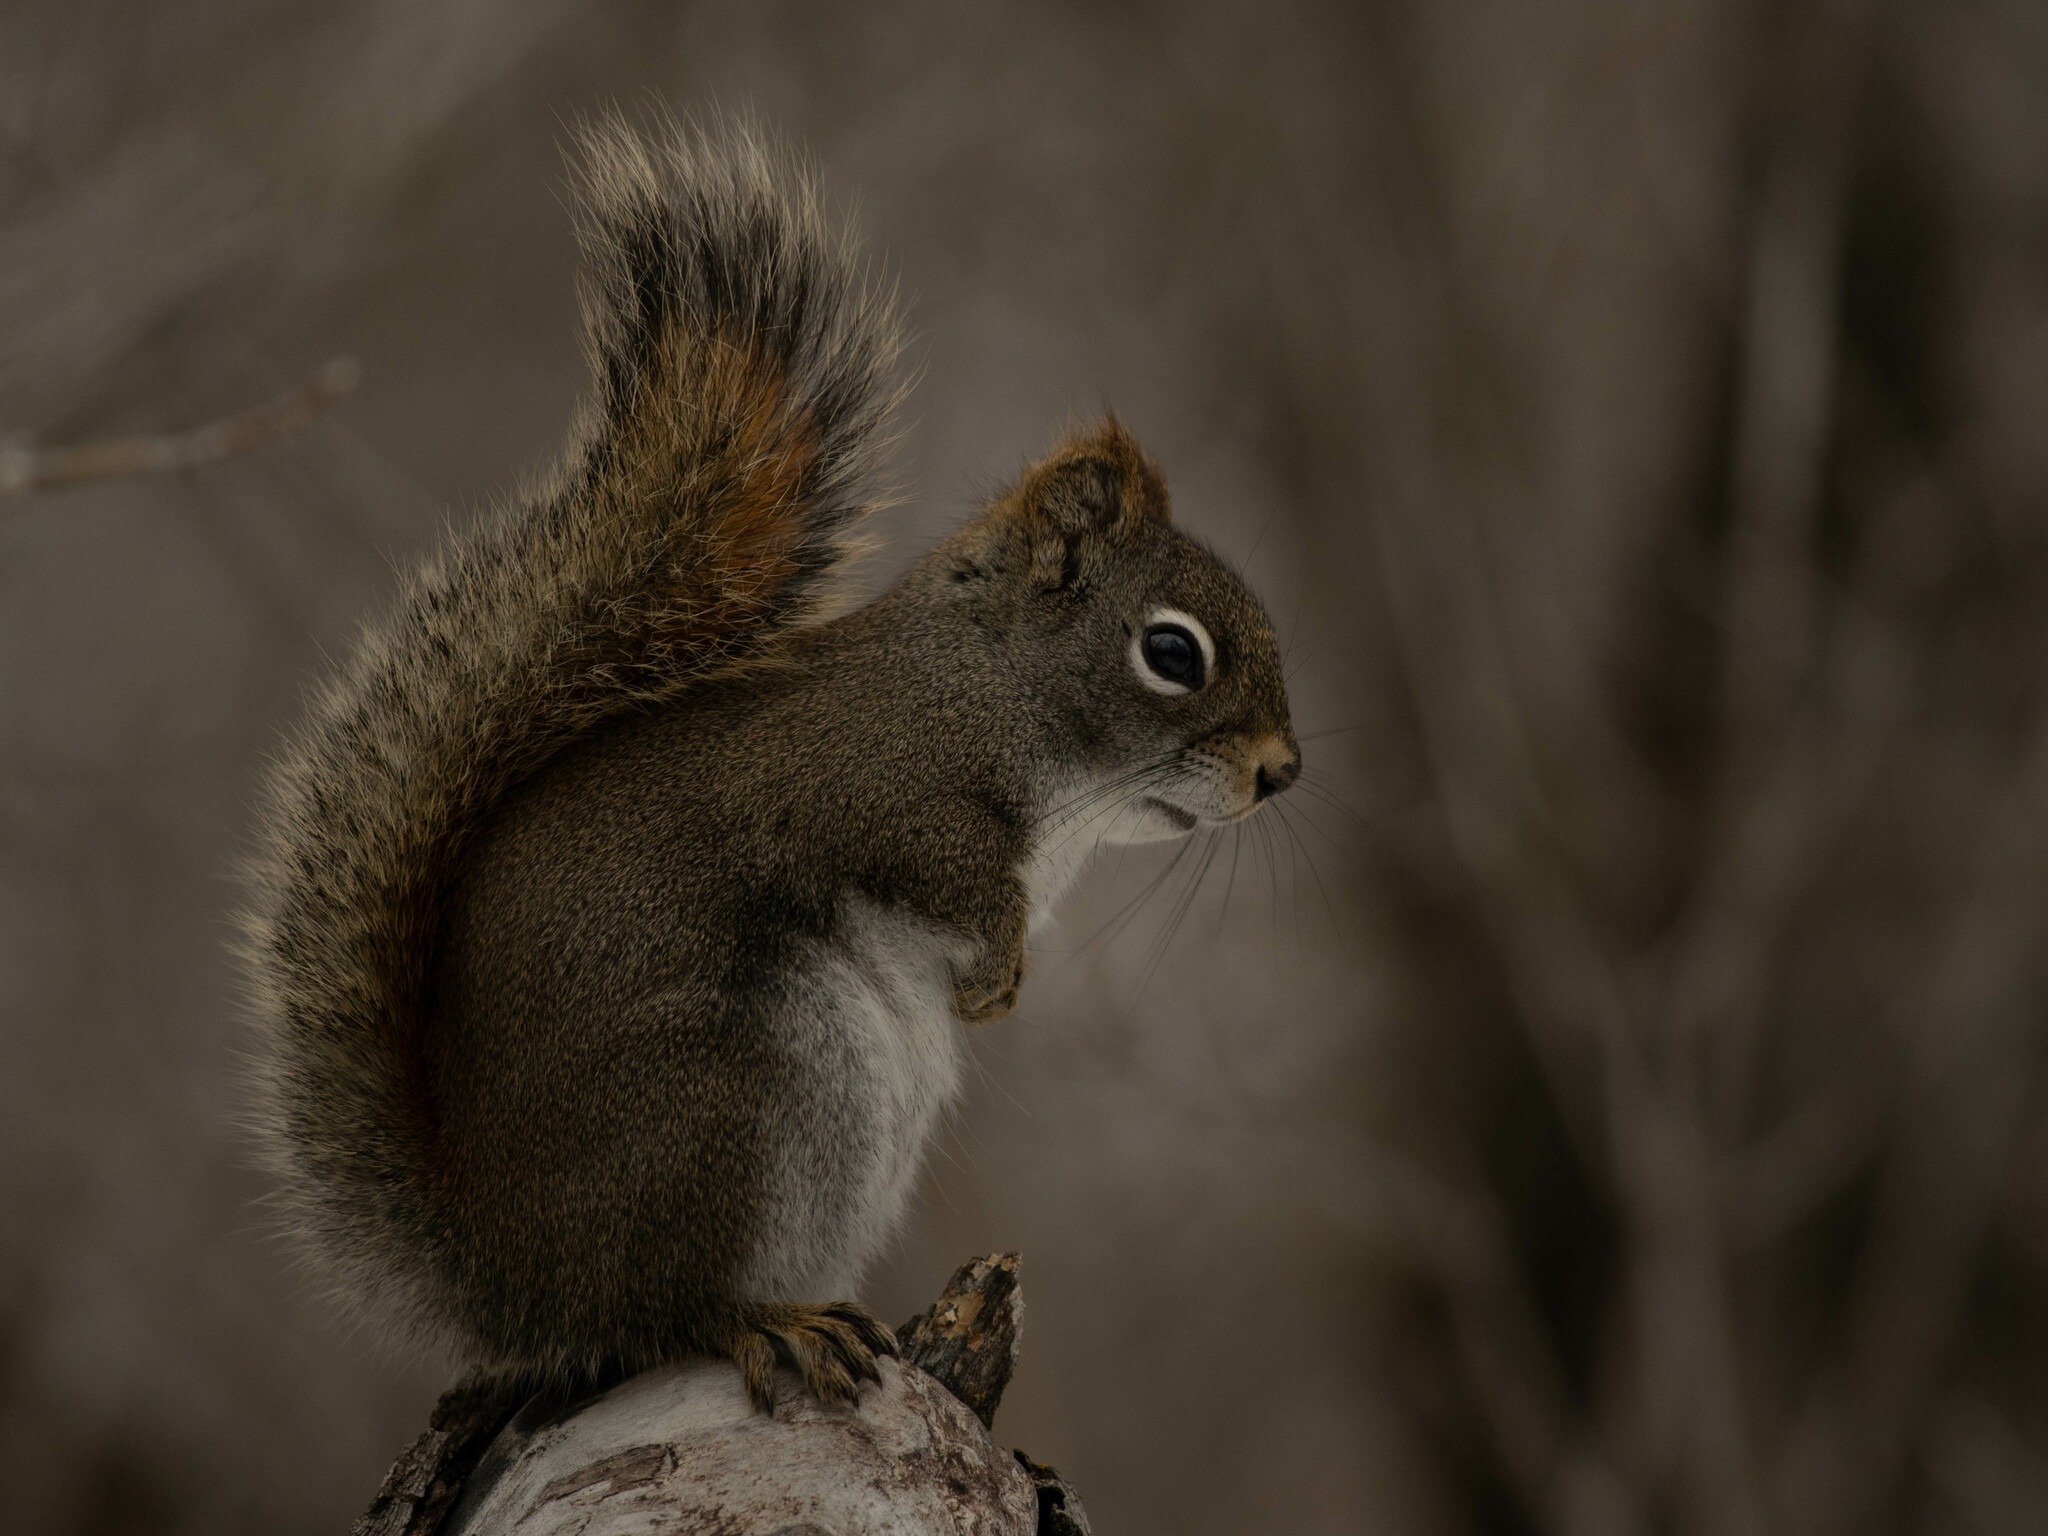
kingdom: Animalia
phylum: Chordata
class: Mammalia
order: Rodentia
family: Sciuridae
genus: Tamiasciurus
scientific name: Tamiasciurus hudsonicus
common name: Red squirrel
